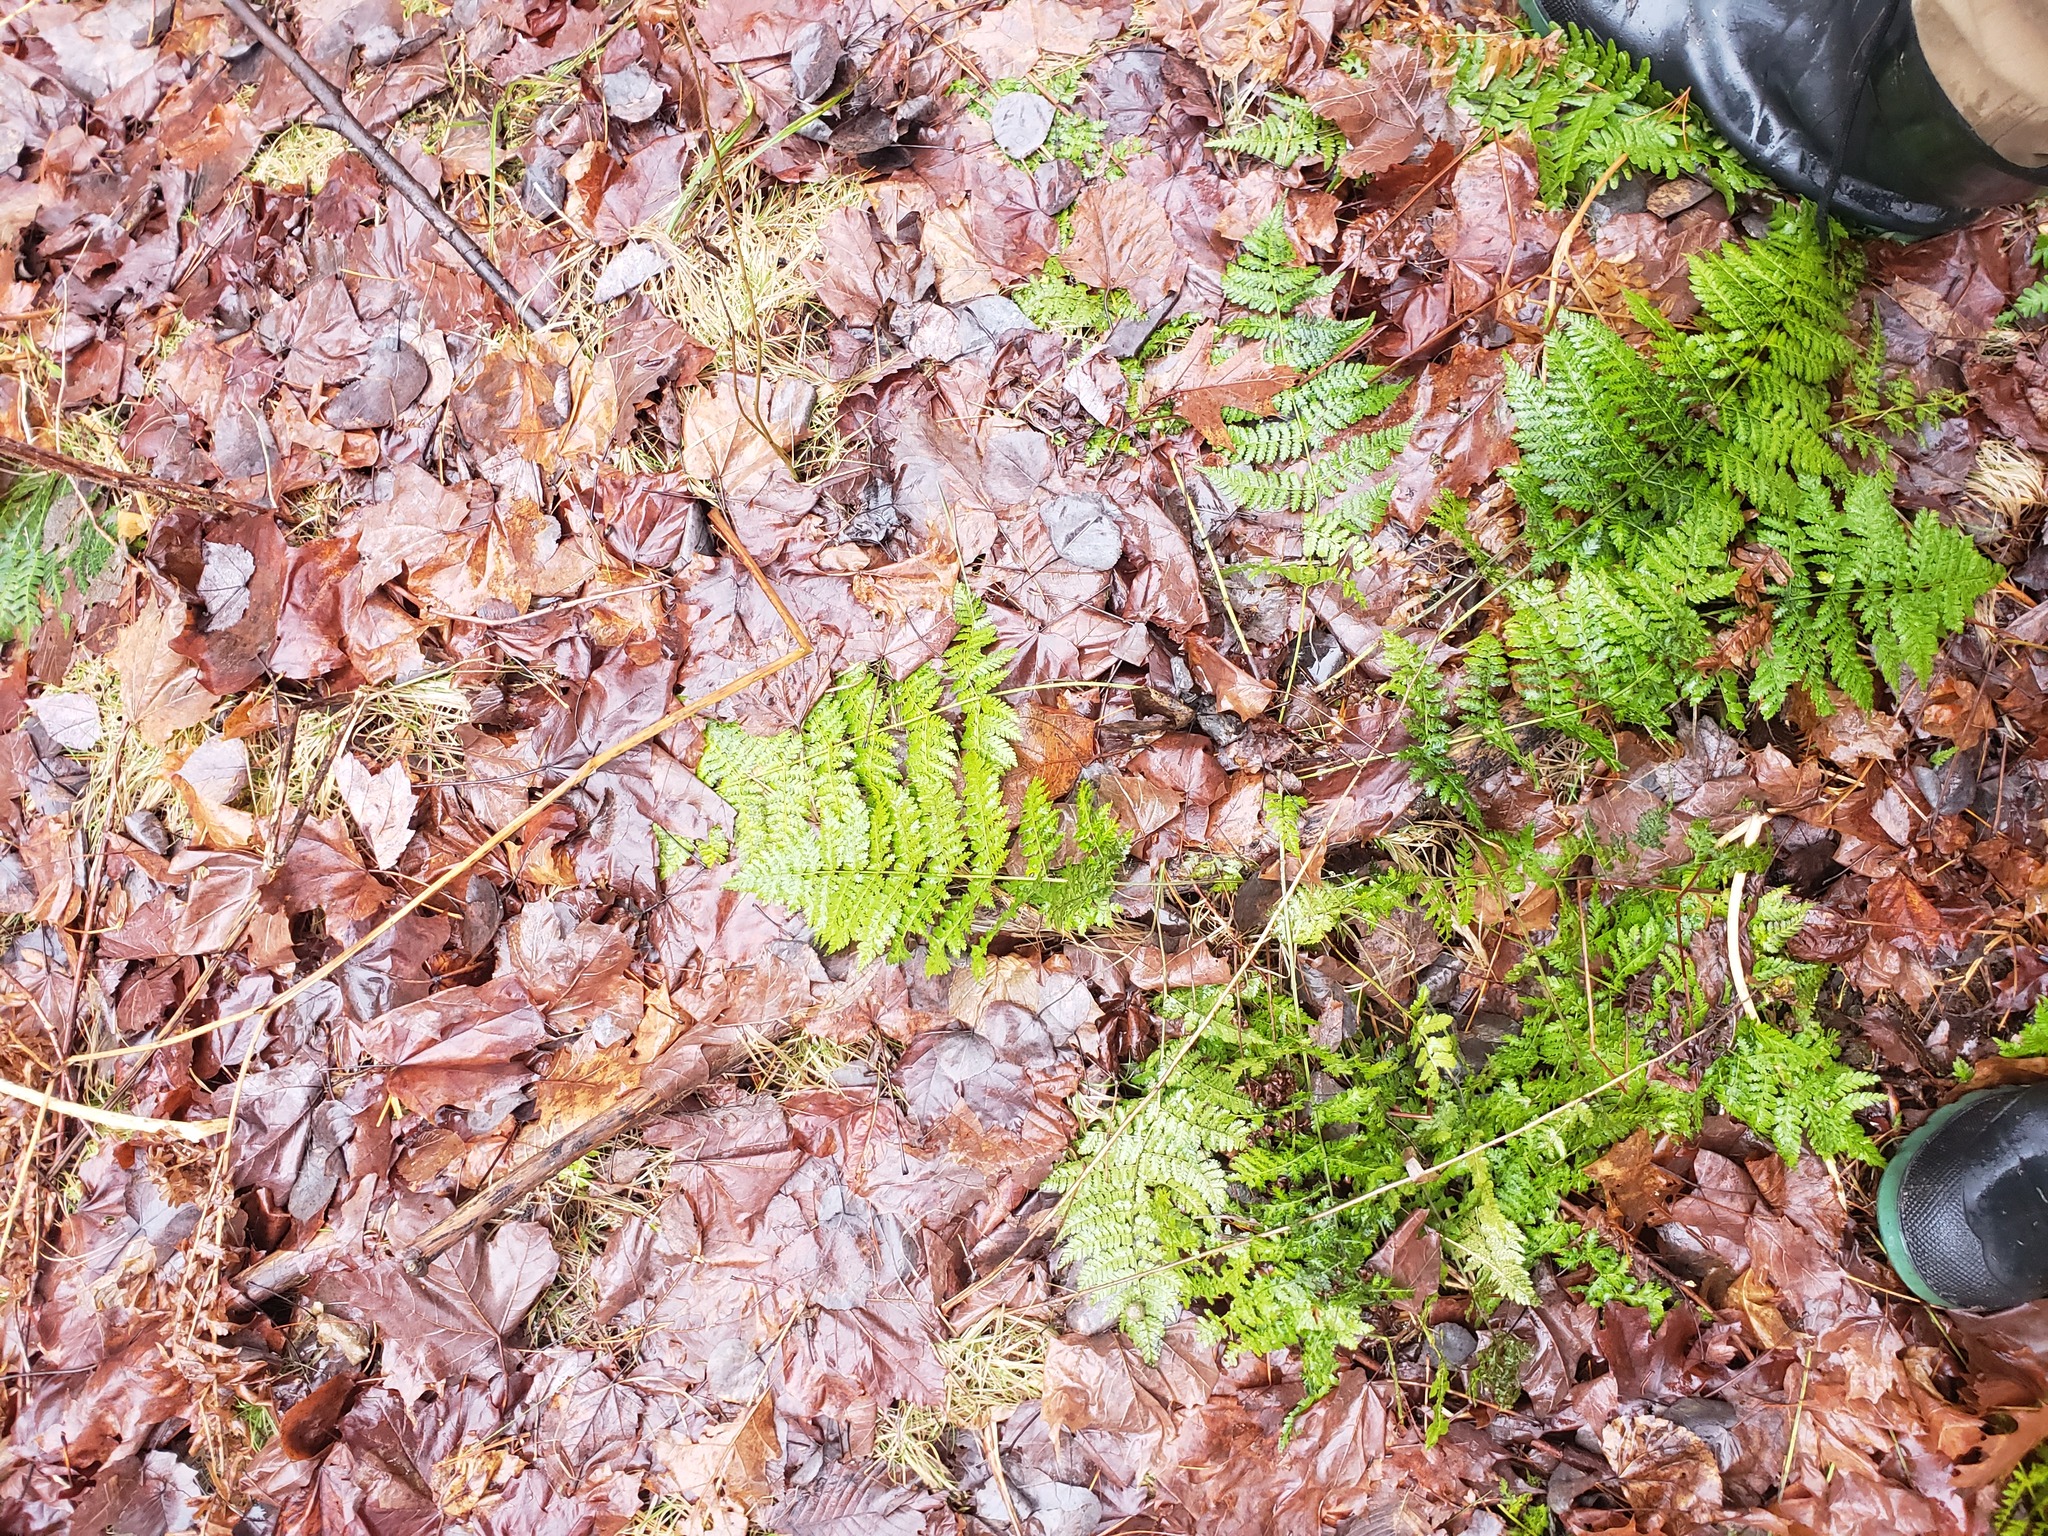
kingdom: Plantae
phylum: Tracheophyta
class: Polypodiopsida
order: Polypodiales
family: Dryopteridaceae
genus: Dryopteris
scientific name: Dryopteris intermedia
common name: Evergreen wood fern
